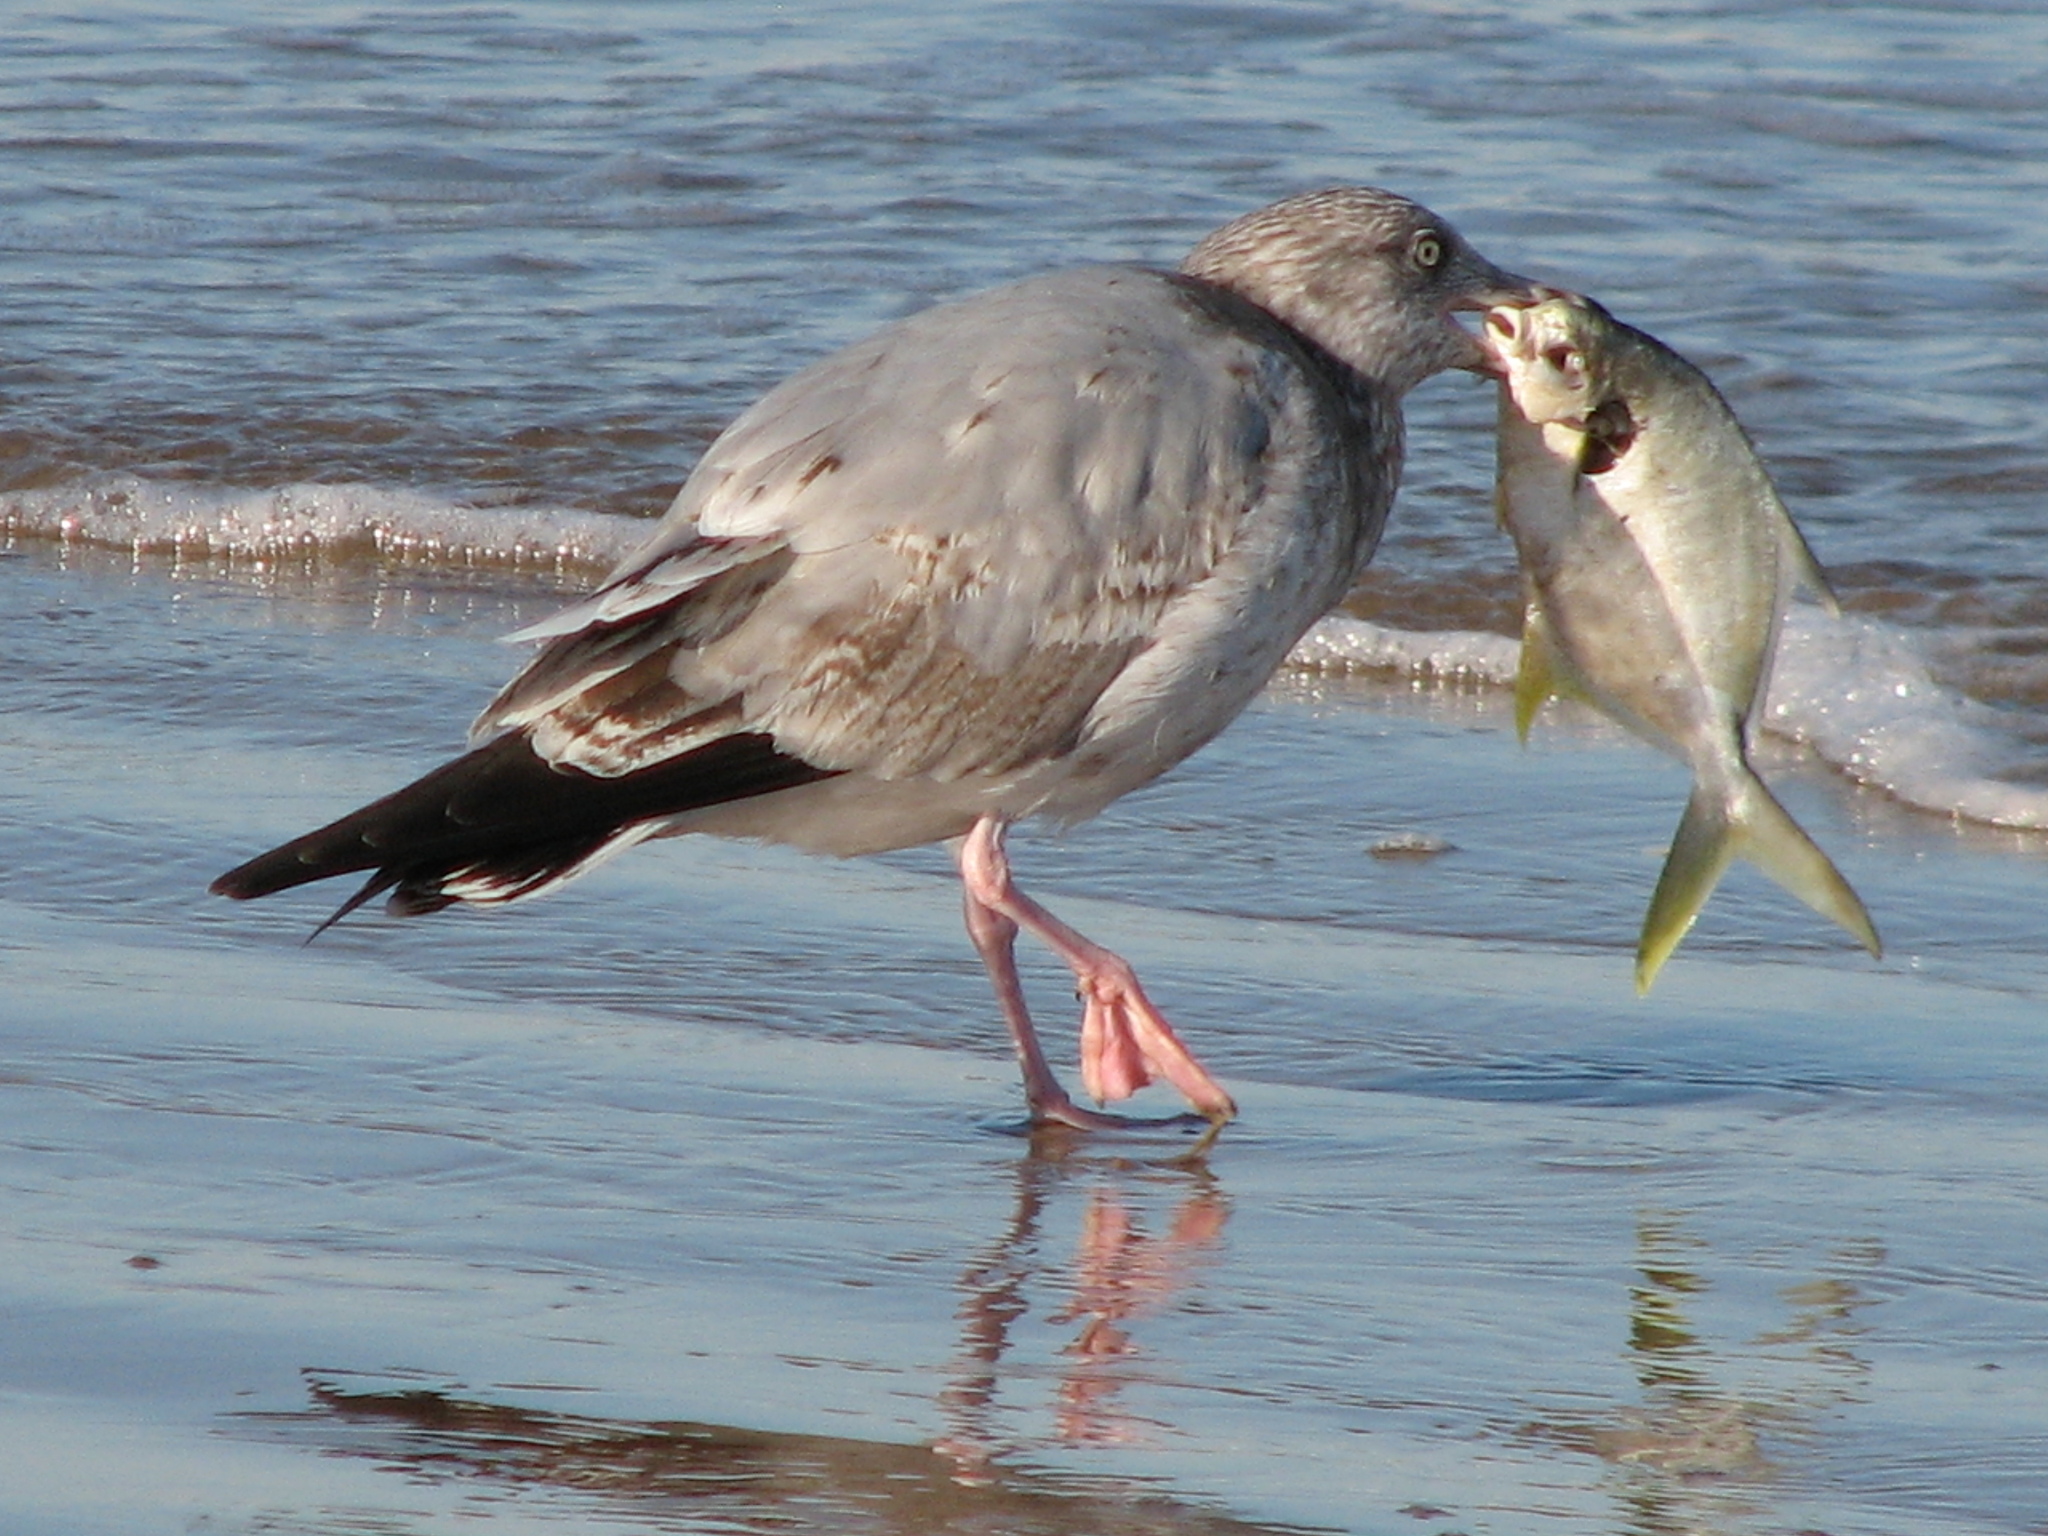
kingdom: Animalia
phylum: Chordata
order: Perciformes
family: Carangidae
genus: Trachinotus
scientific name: Trachinotus carolinus
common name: Florida pompano
